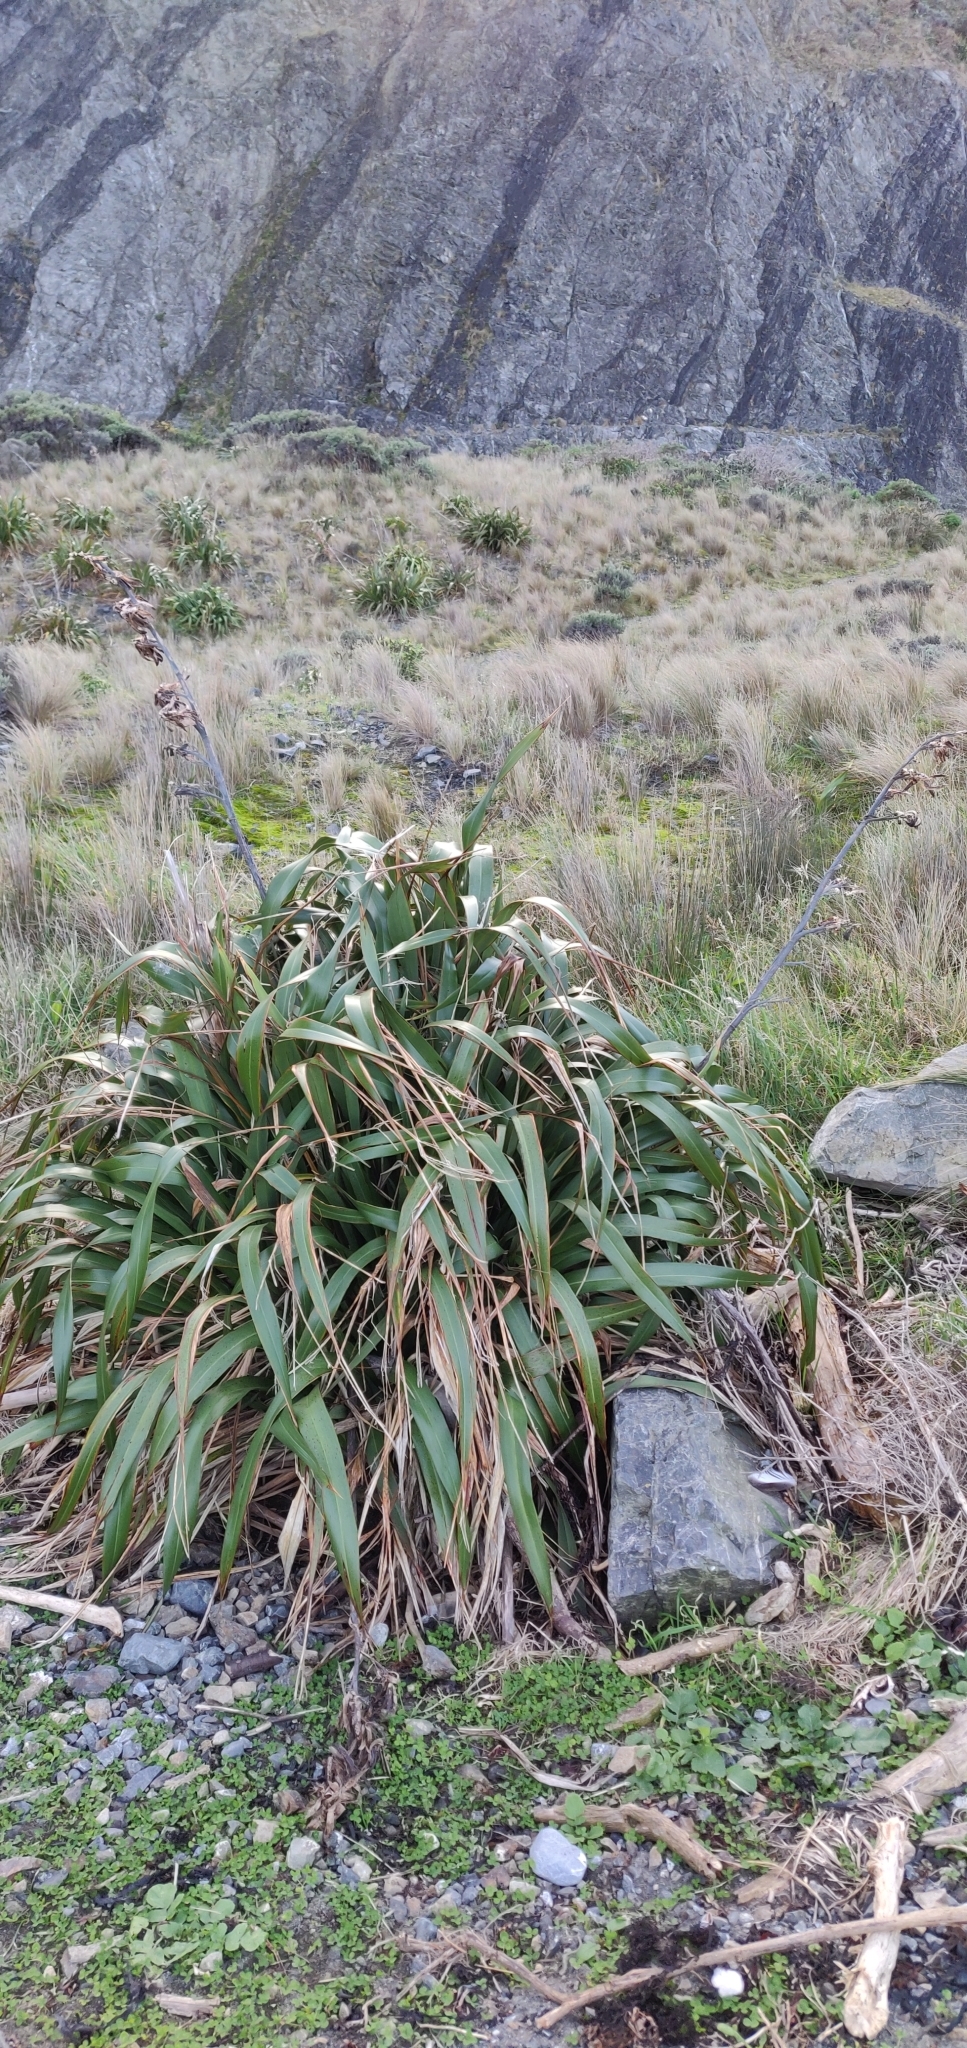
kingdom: Plantae
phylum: Tracheophyta
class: Liliopsida
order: Asparagales
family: Asphodelaceae
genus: Phormium
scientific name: Phormium colensoi
